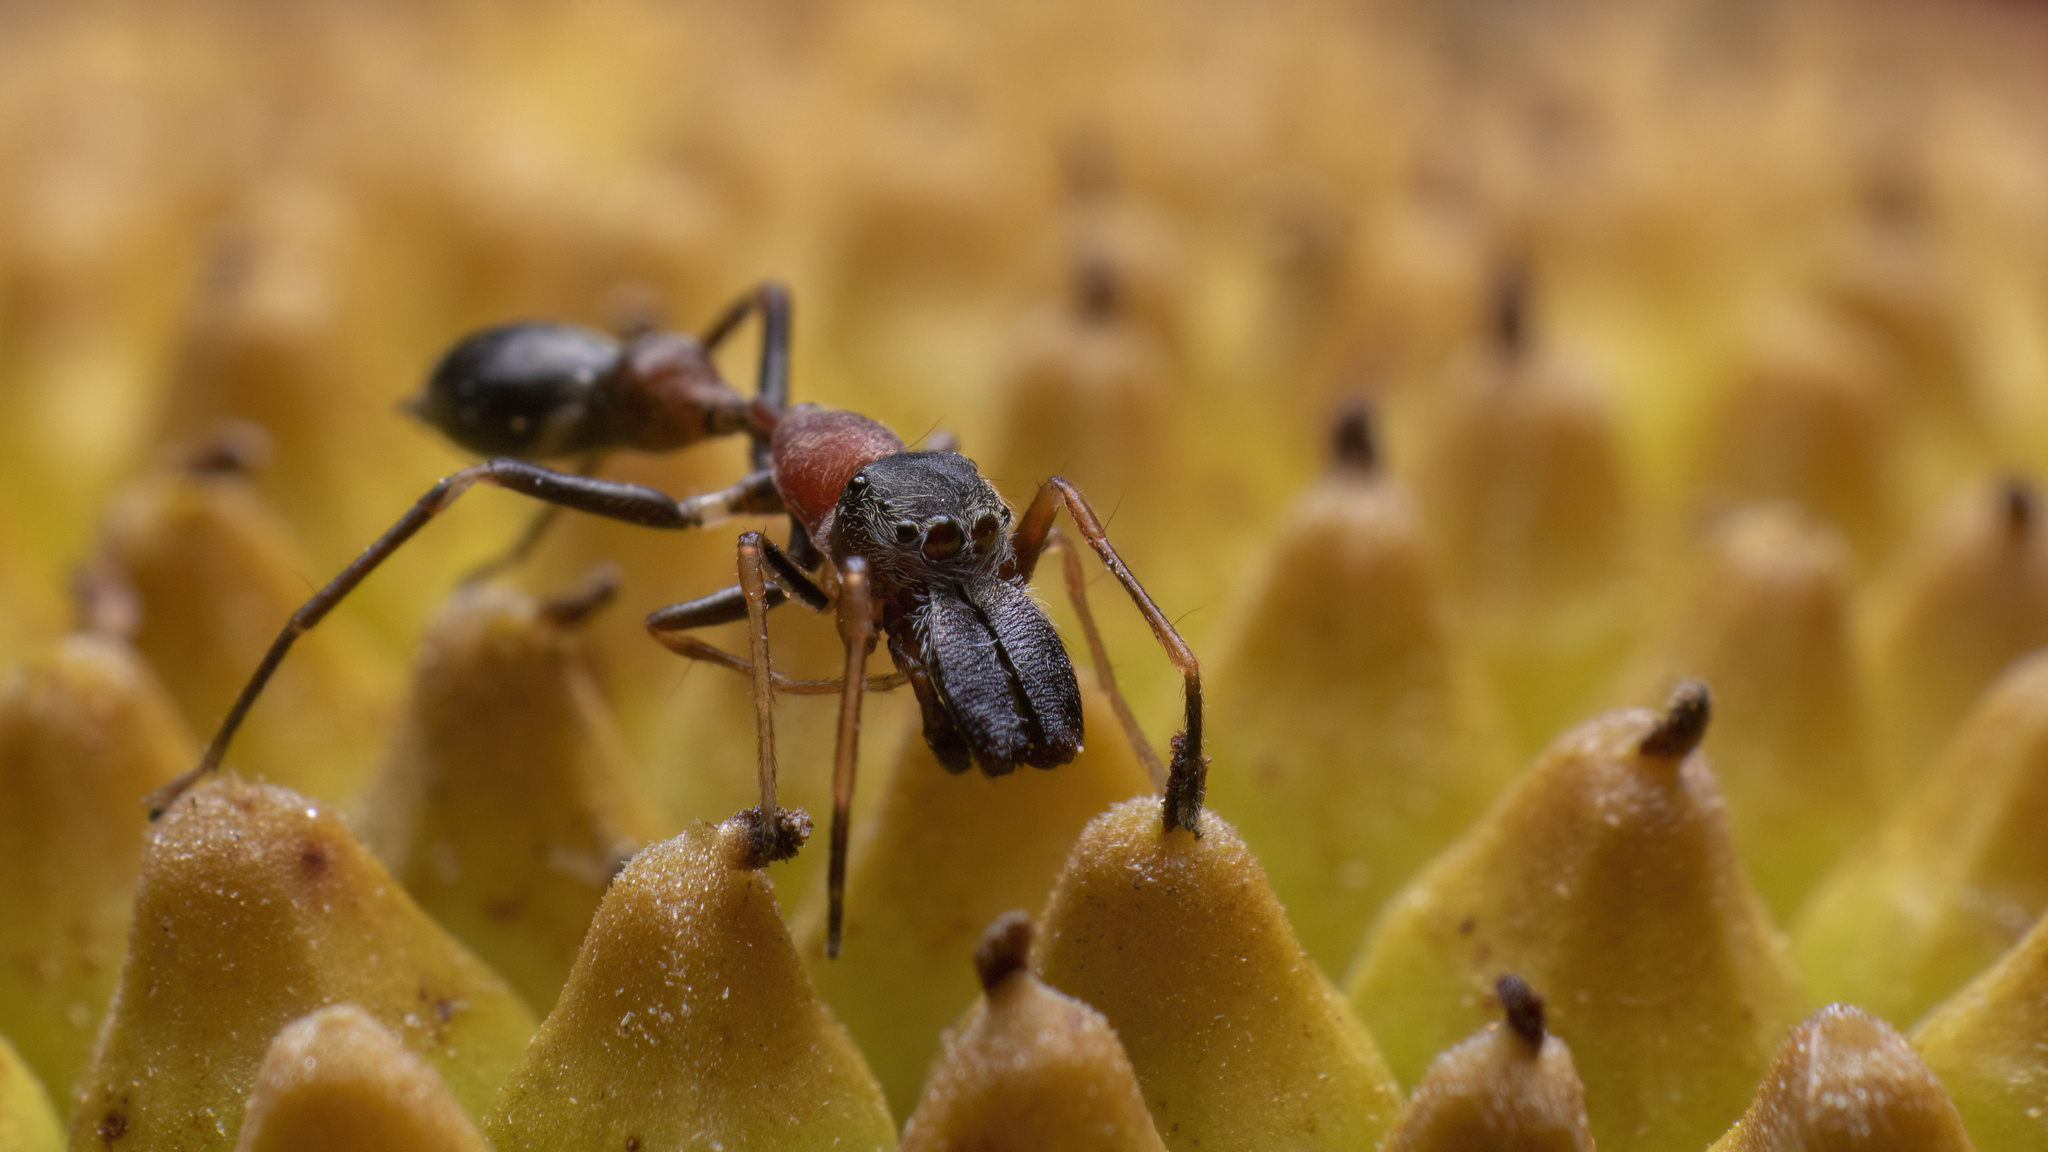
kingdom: Animalia
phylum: Arthropoda
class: Arachnida
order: Araneae
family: Salticidae
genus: Myrmarachne
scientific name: Myrmarachne melanocephala
